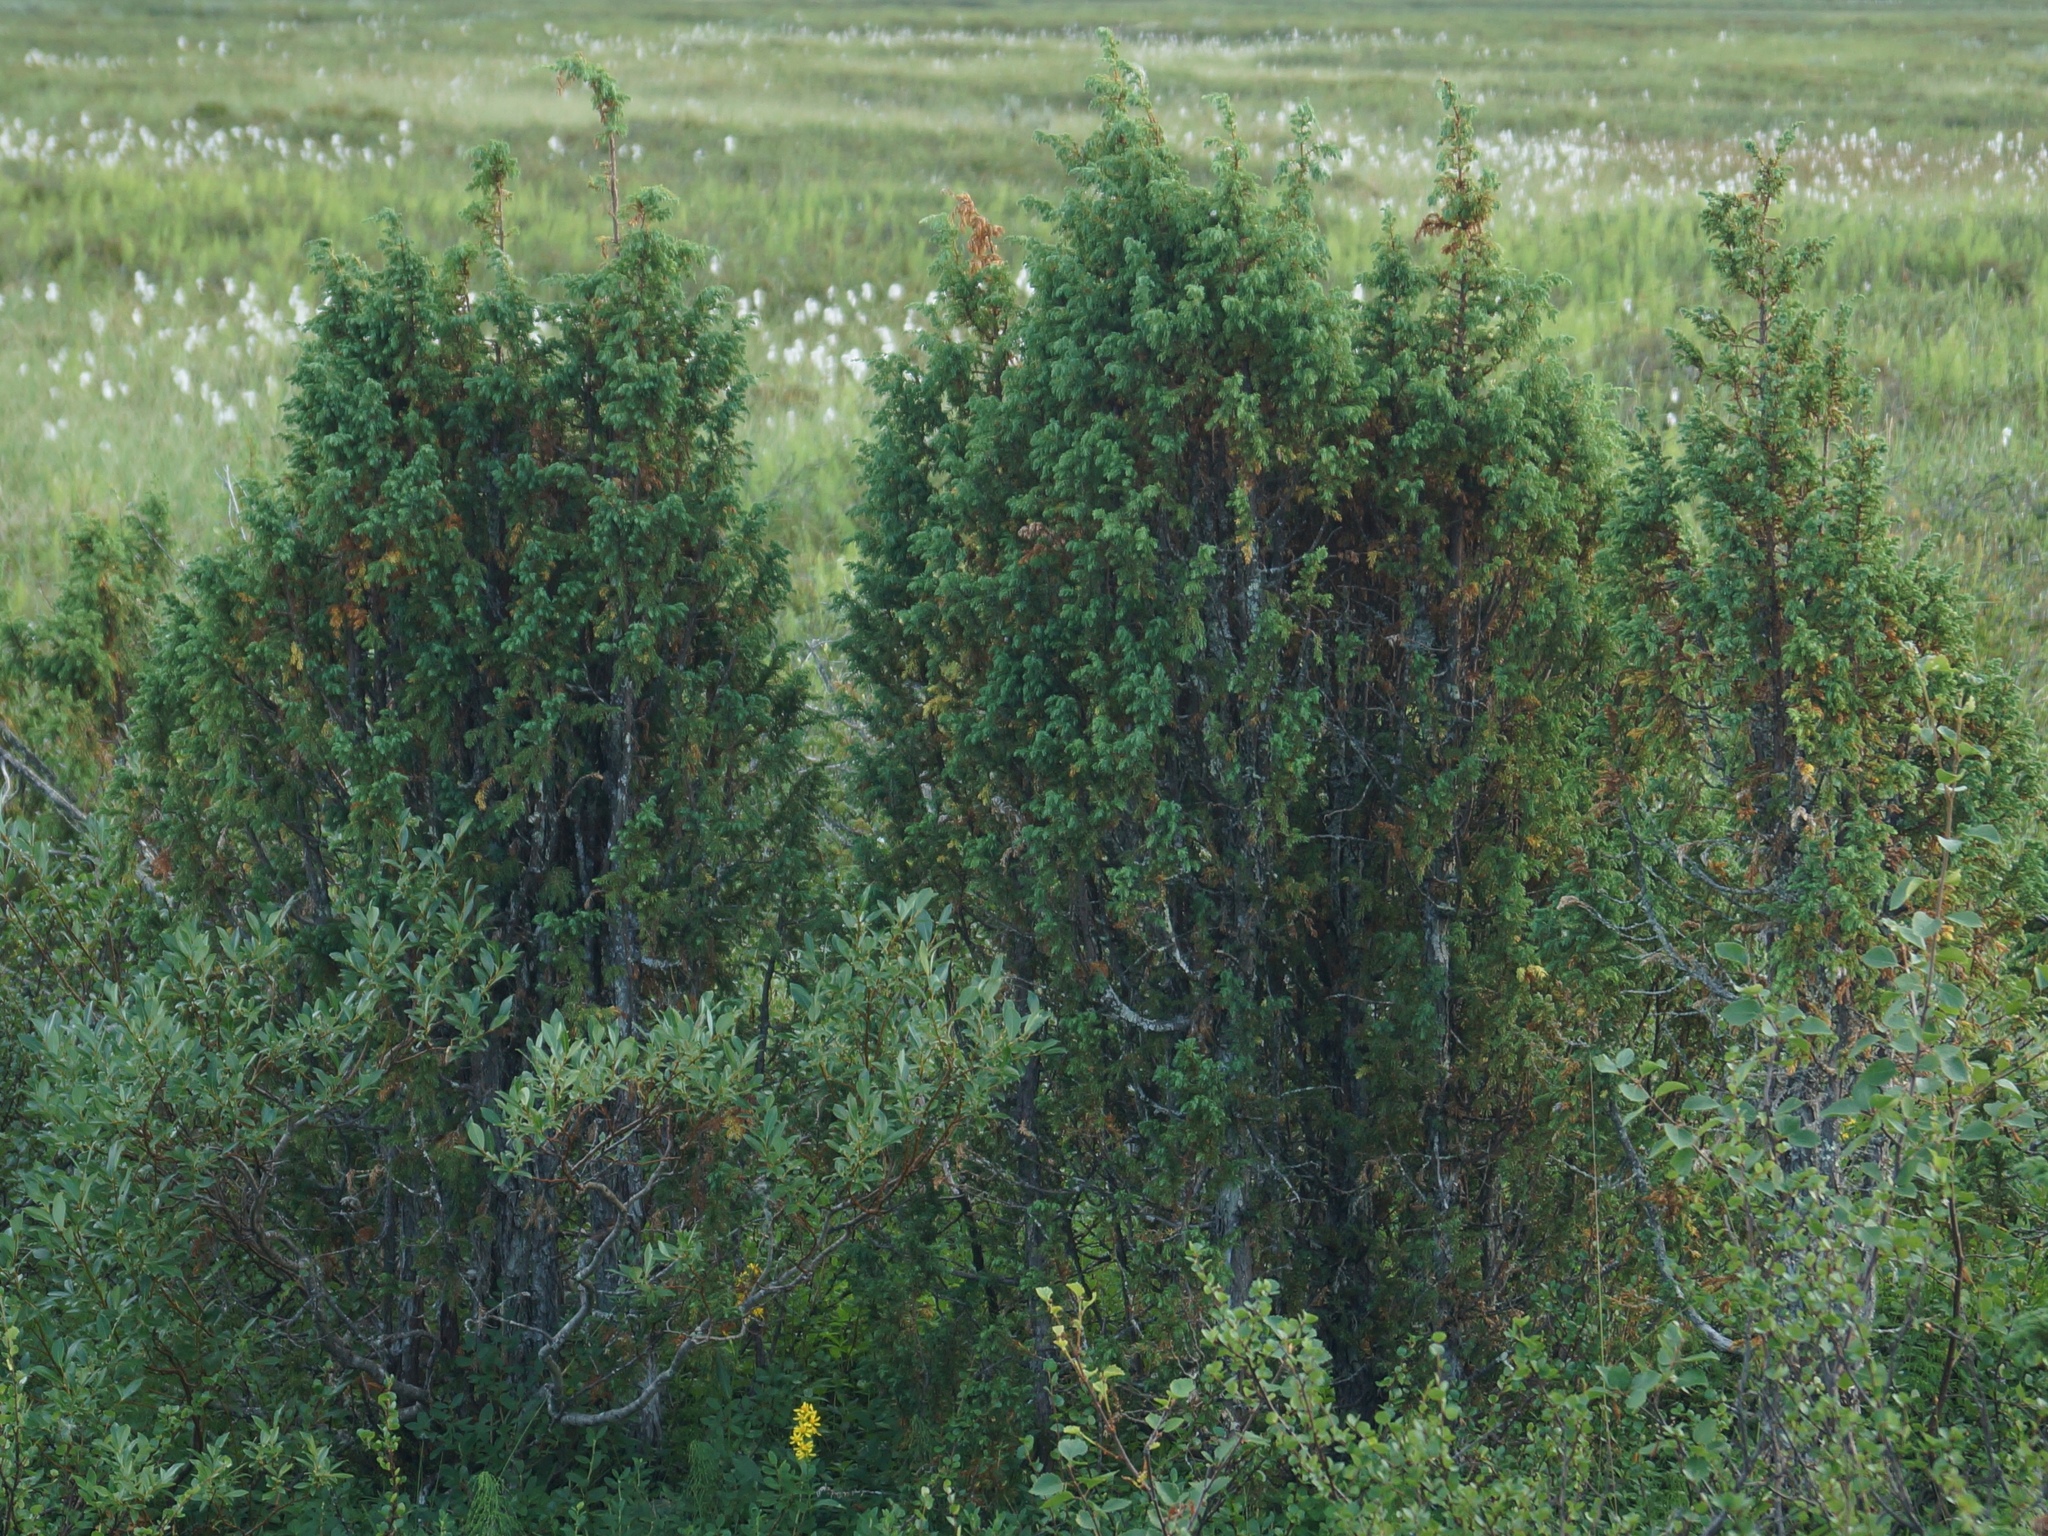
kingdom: Plantae
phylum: Tracheophyta
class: Pinopsida
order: Pinales
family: Cupressaceae
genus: Juniperus
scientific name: Juniperus communis
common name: Common juniper
